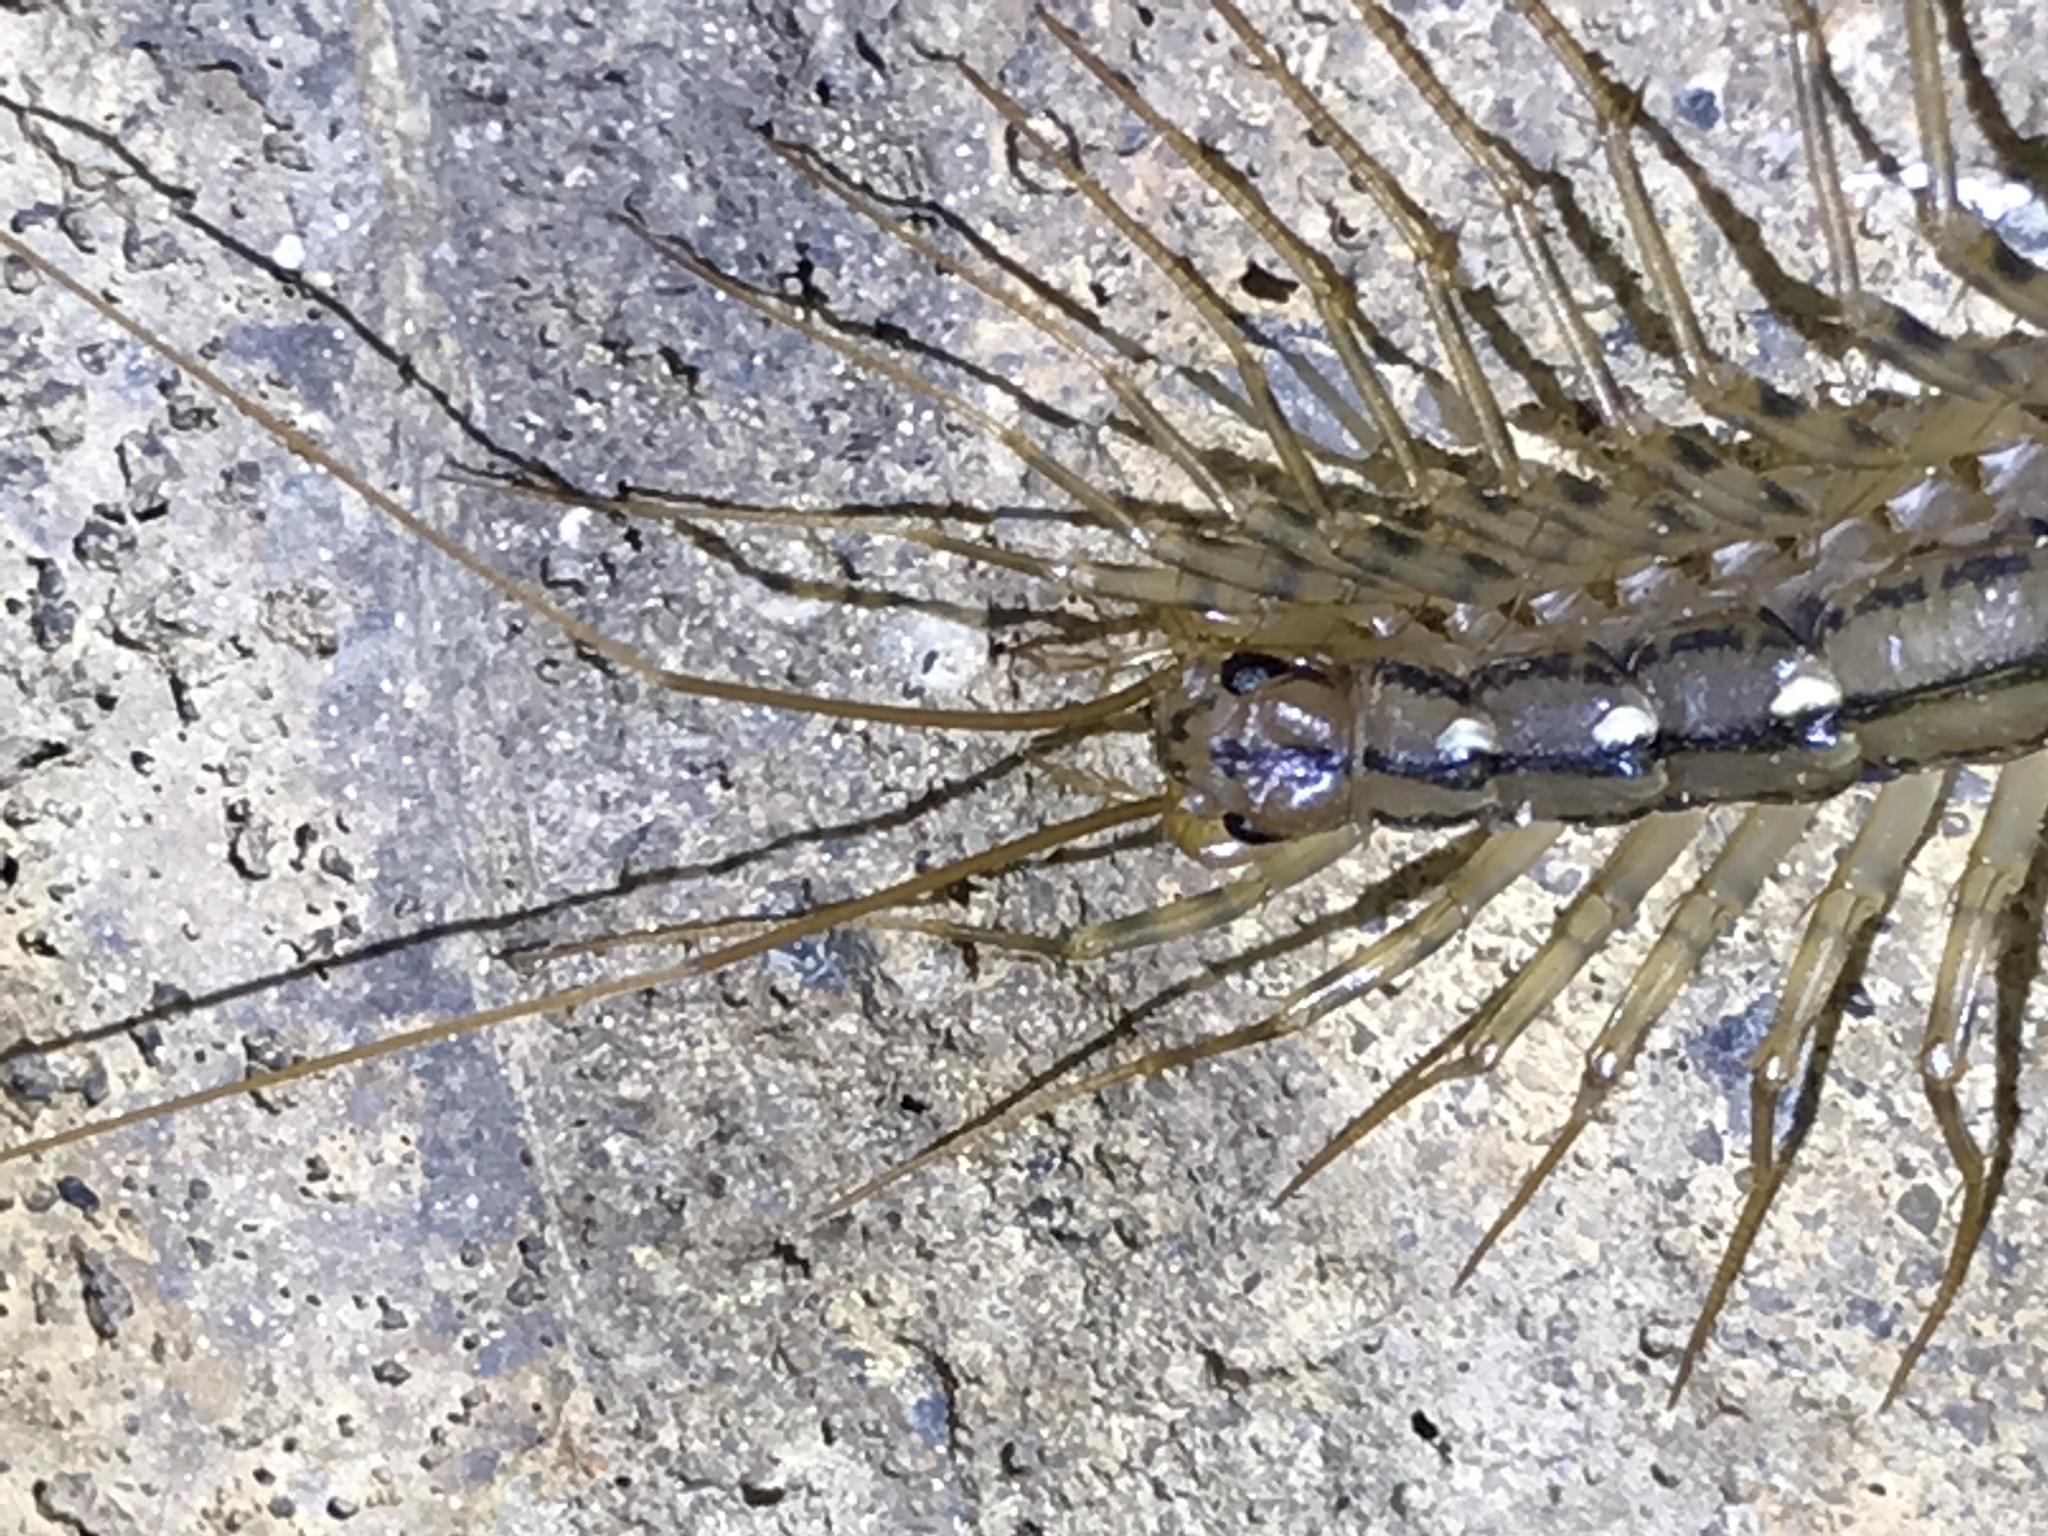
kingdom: Animalia
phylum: Arthropoda
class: Chilopoda
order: Scutigeromorpha
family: Scutigeridae
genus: Scutigera
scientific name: Scutigera coleoptrata
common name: House centipede
